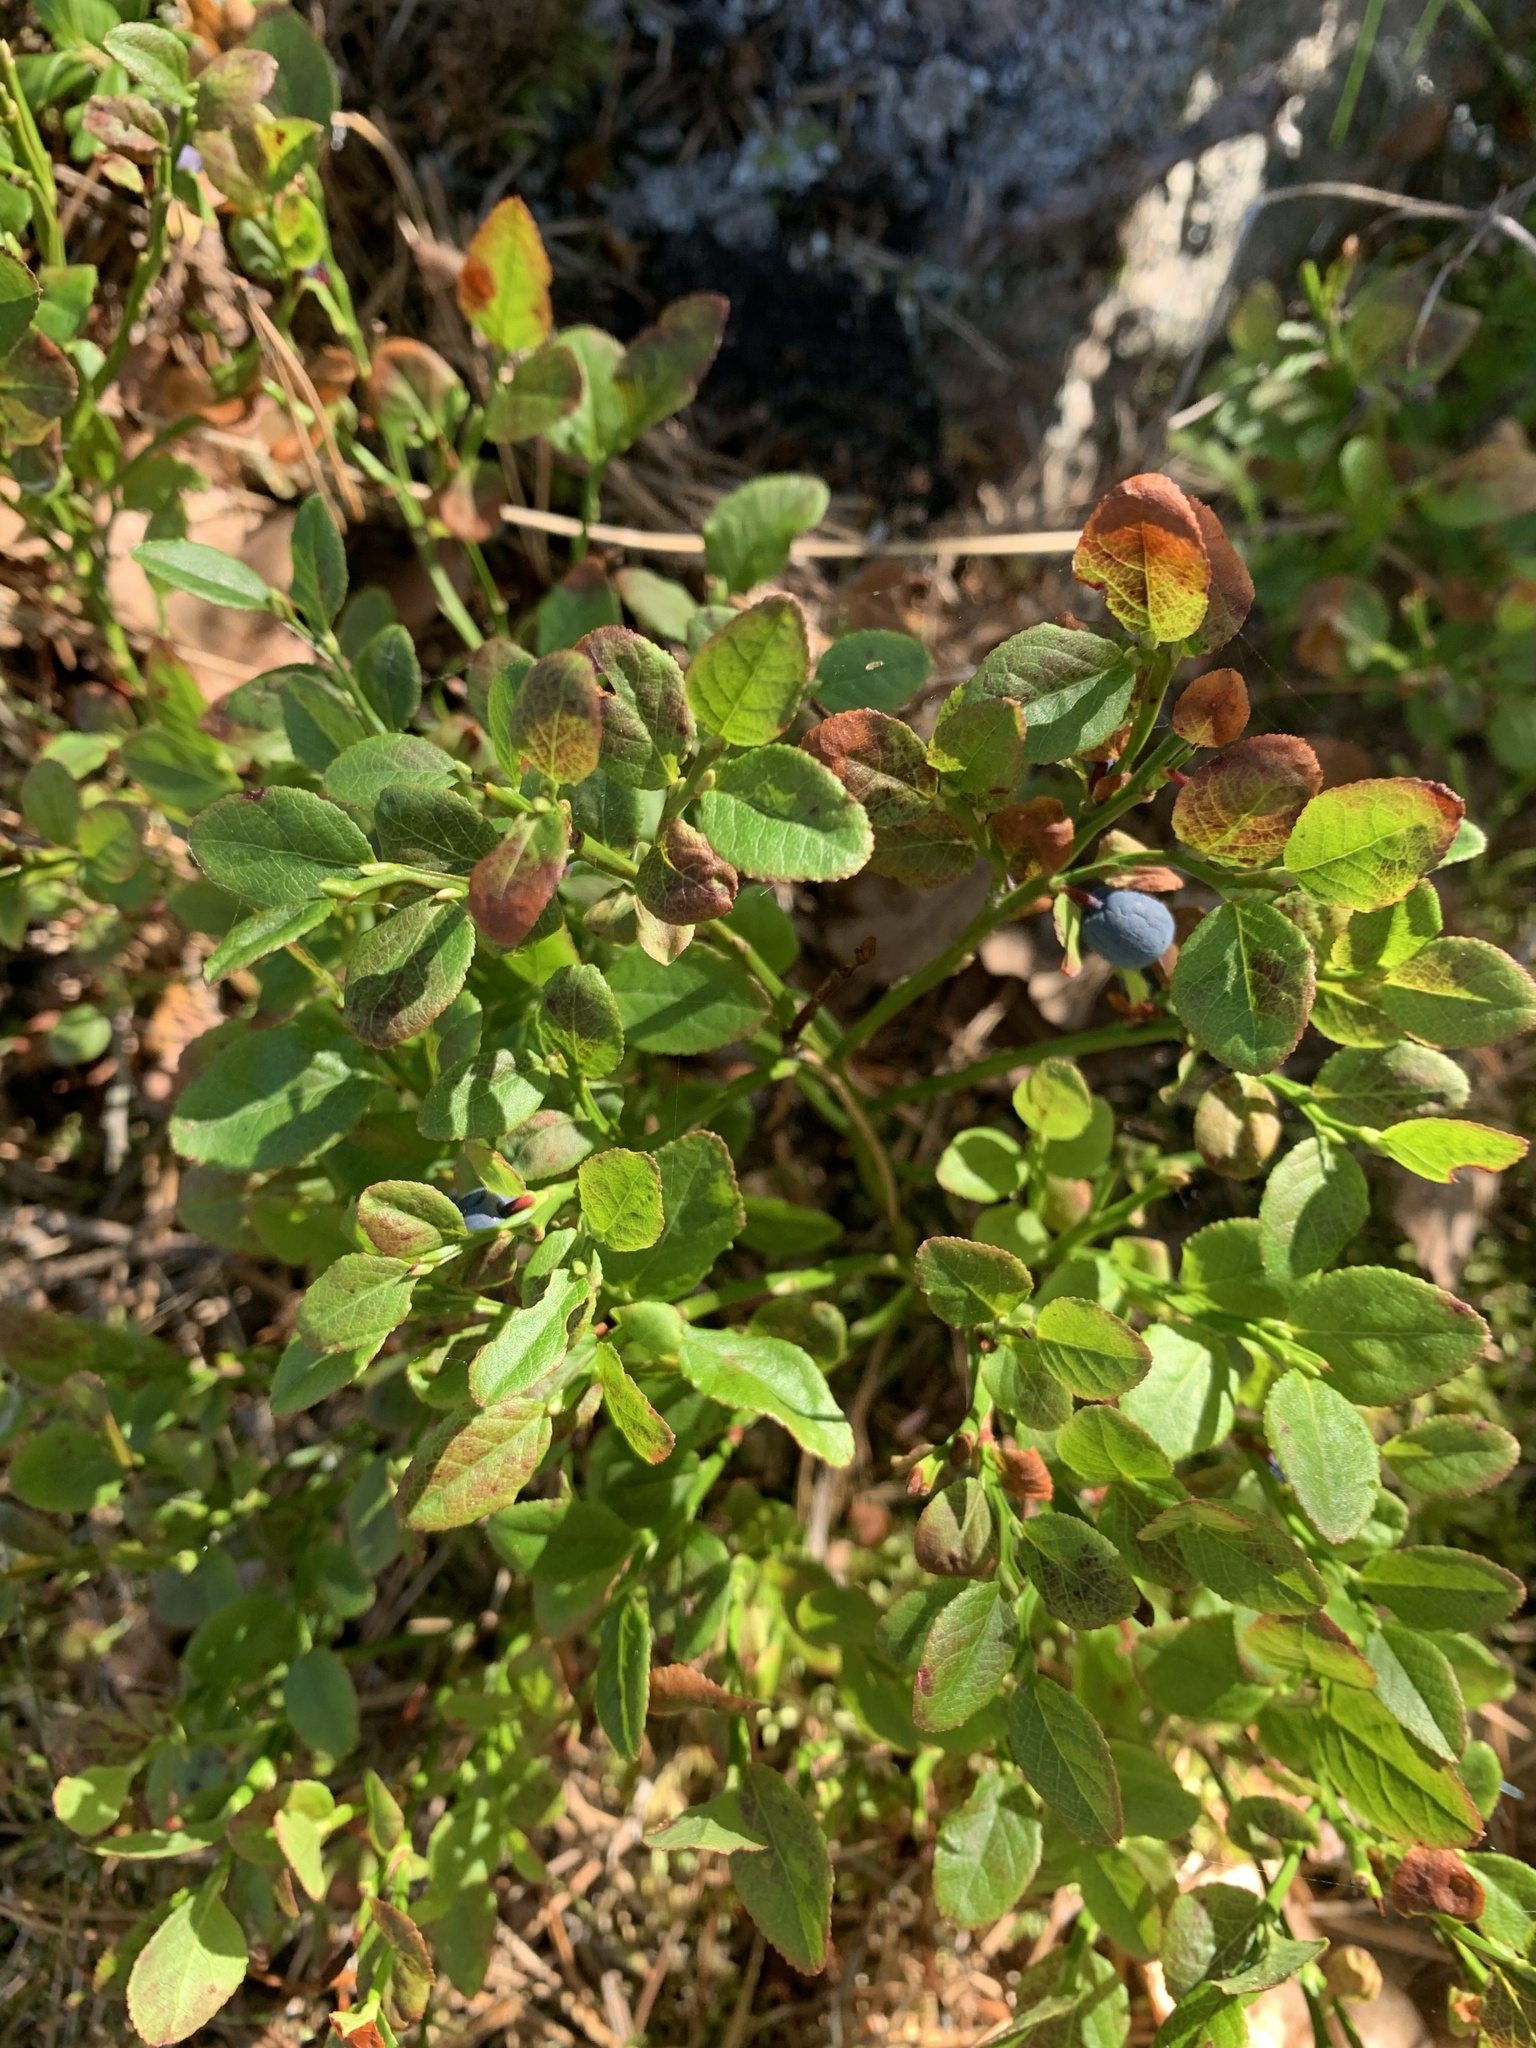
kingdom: Plantae
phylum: Tracheophyta
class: Magnoliopsida
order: Ericales
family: Ericaceae
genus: Vaccinium
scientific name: Vaccinium myrtillus
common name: Bilberry
